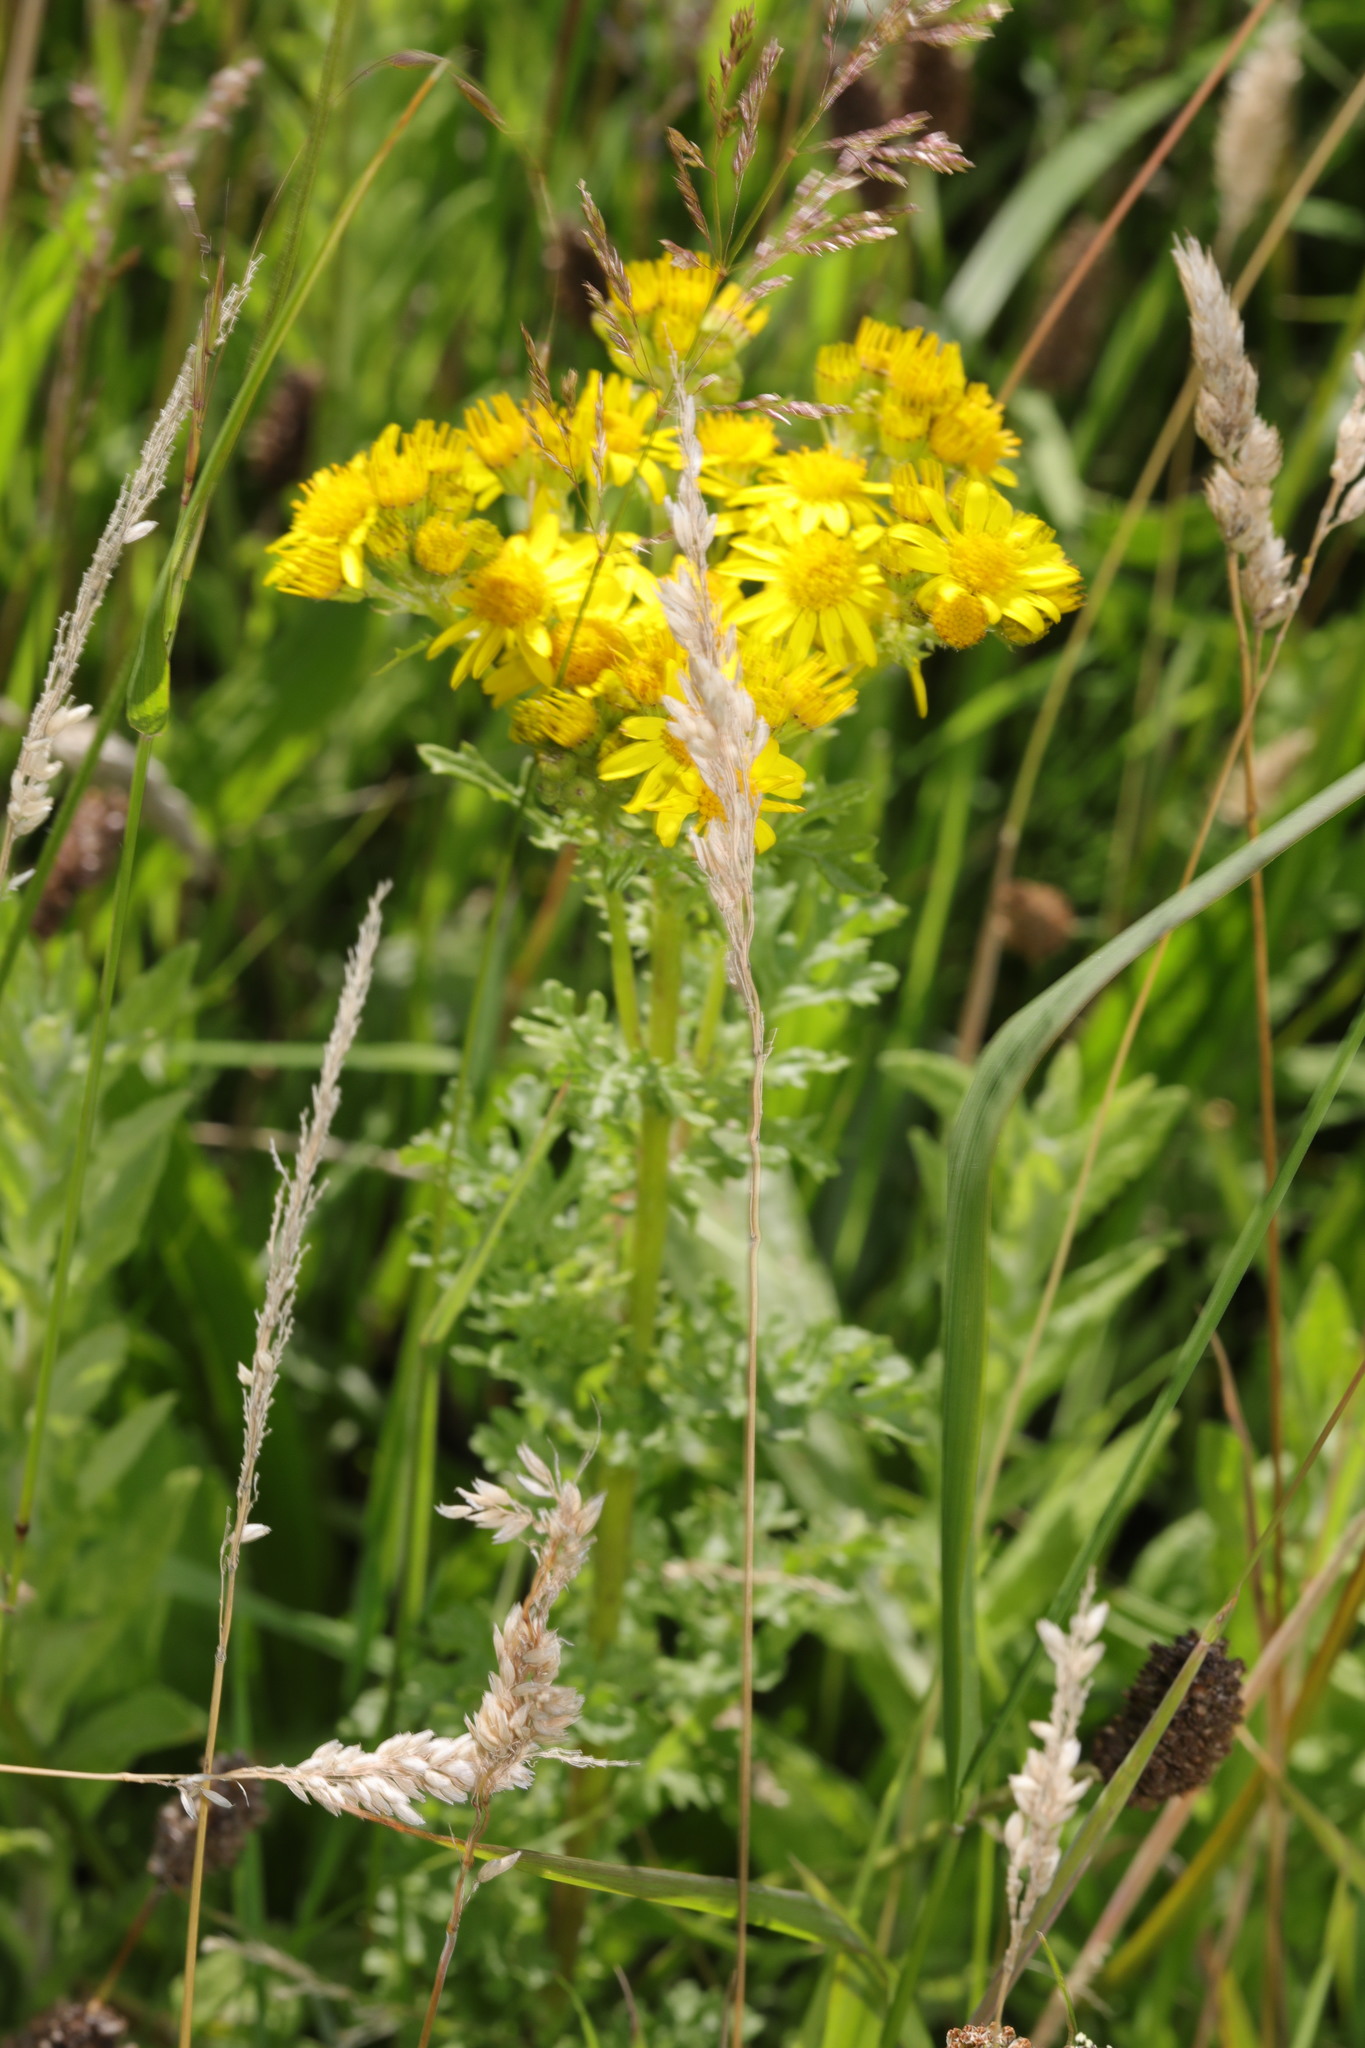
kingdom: Plantae
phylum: Tracheophyta
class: Magnoliopsida
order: Asterales
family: Asteraceae
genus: Jacobaea
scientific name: Jacobaea vulgaris
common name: Stinking willie
